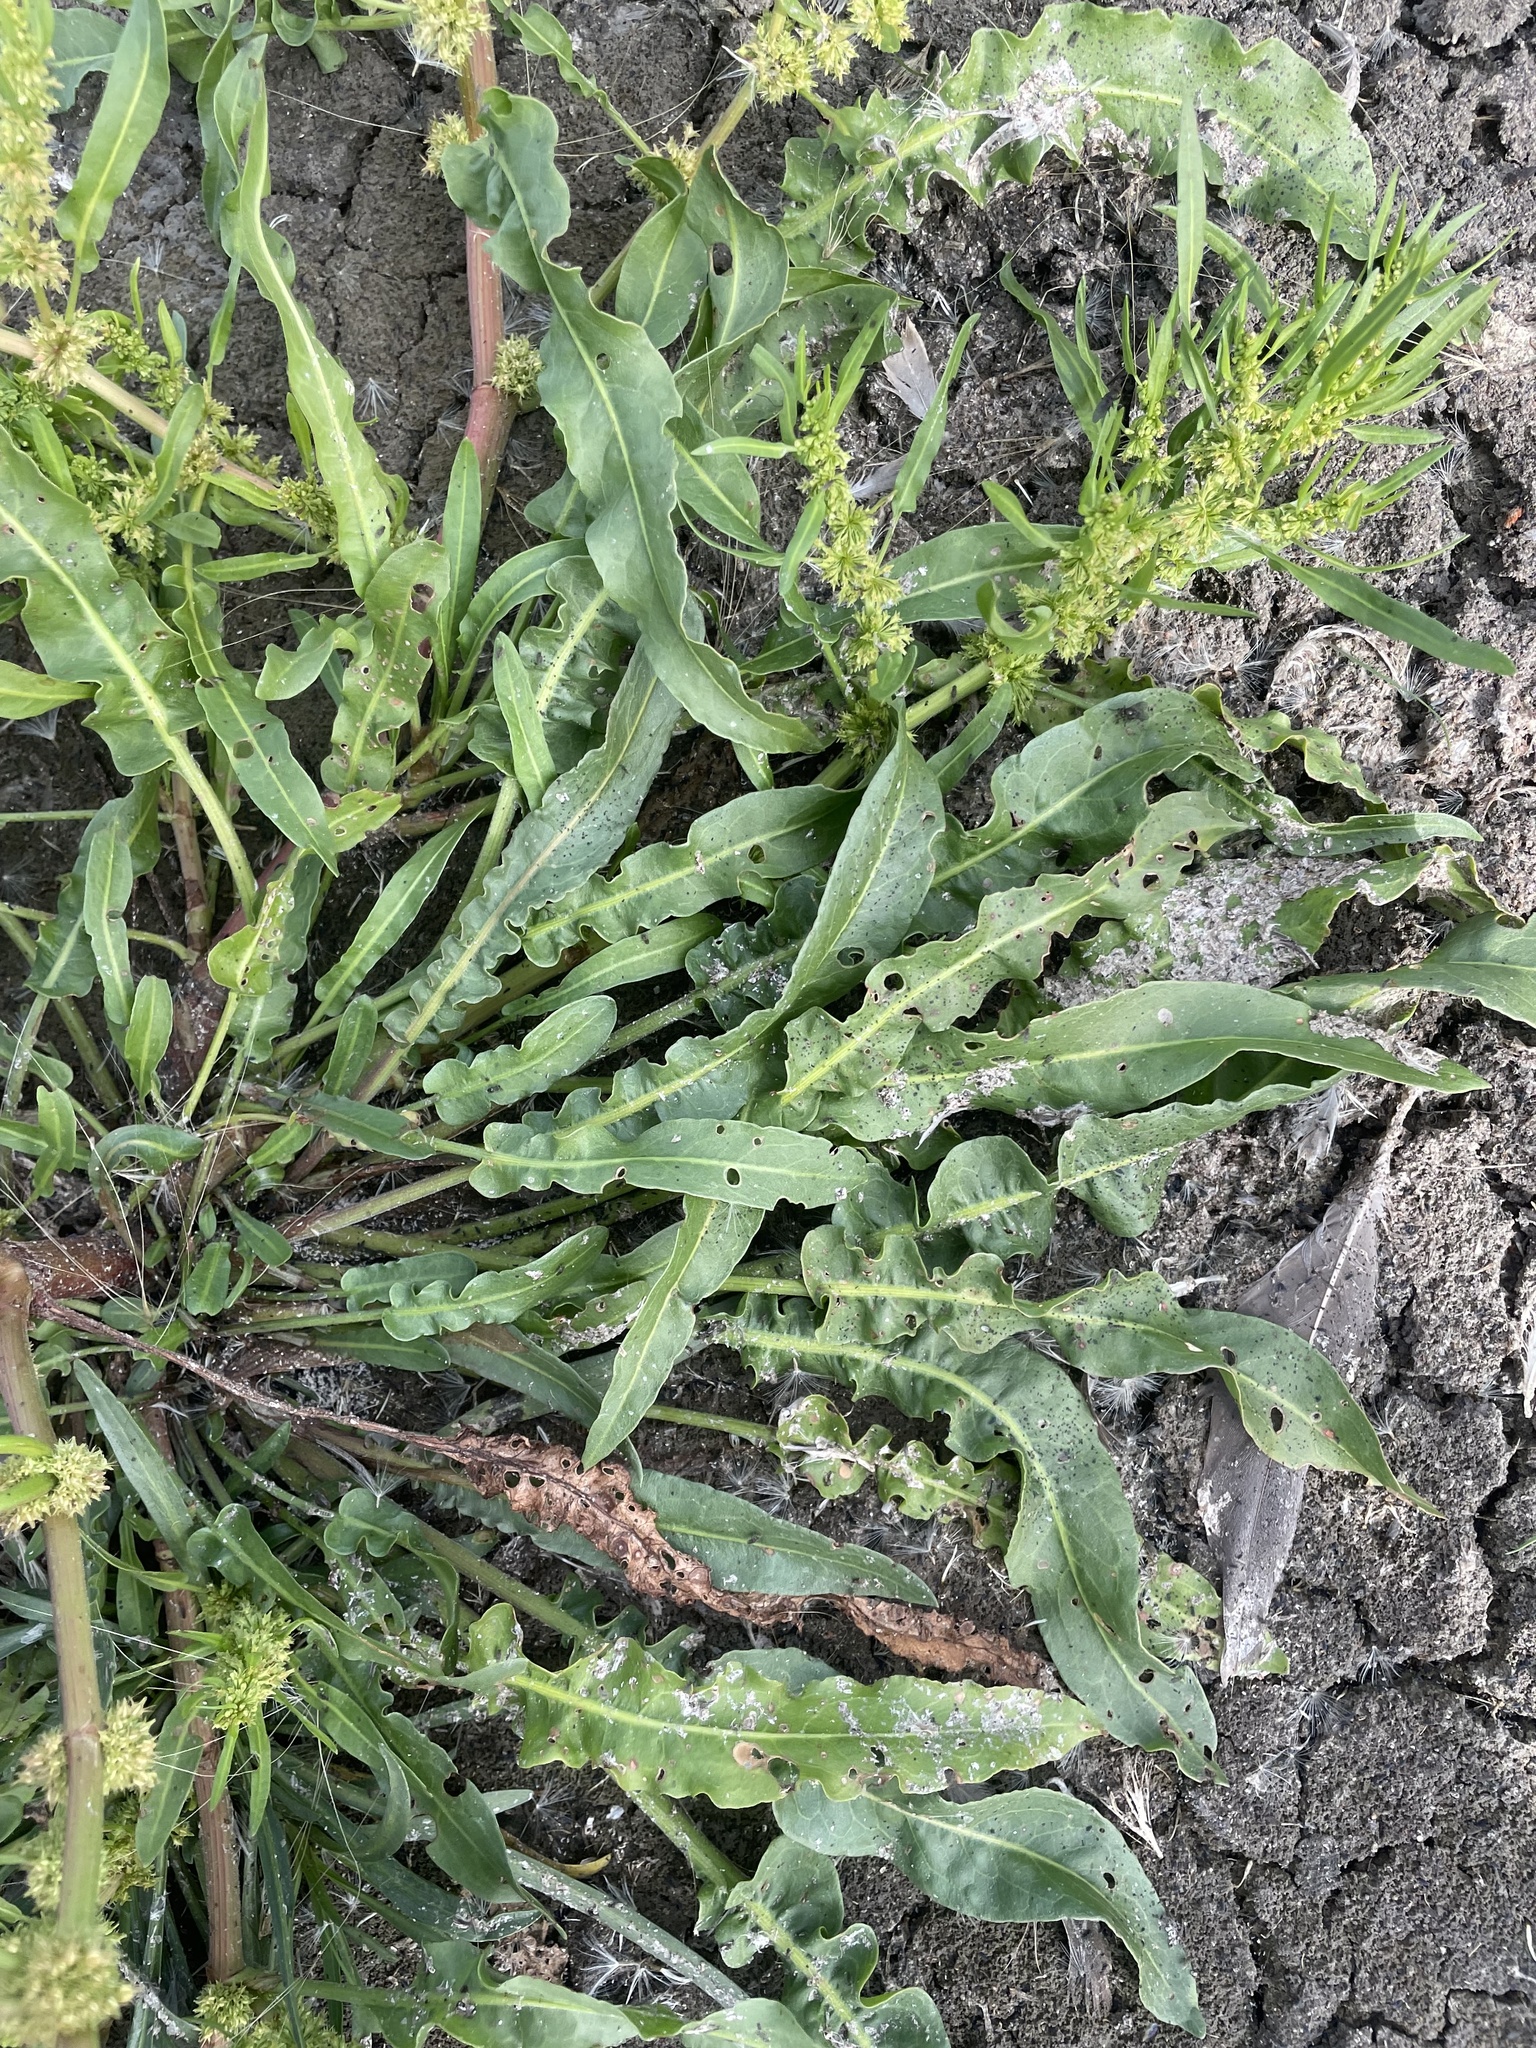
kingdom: Plantae
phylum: Tracheophyta
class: Magnoliopsida
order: Caryophyllales
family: Polygonaceae
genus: Rumex
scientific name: Rumex fueginus
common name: American golden dock
